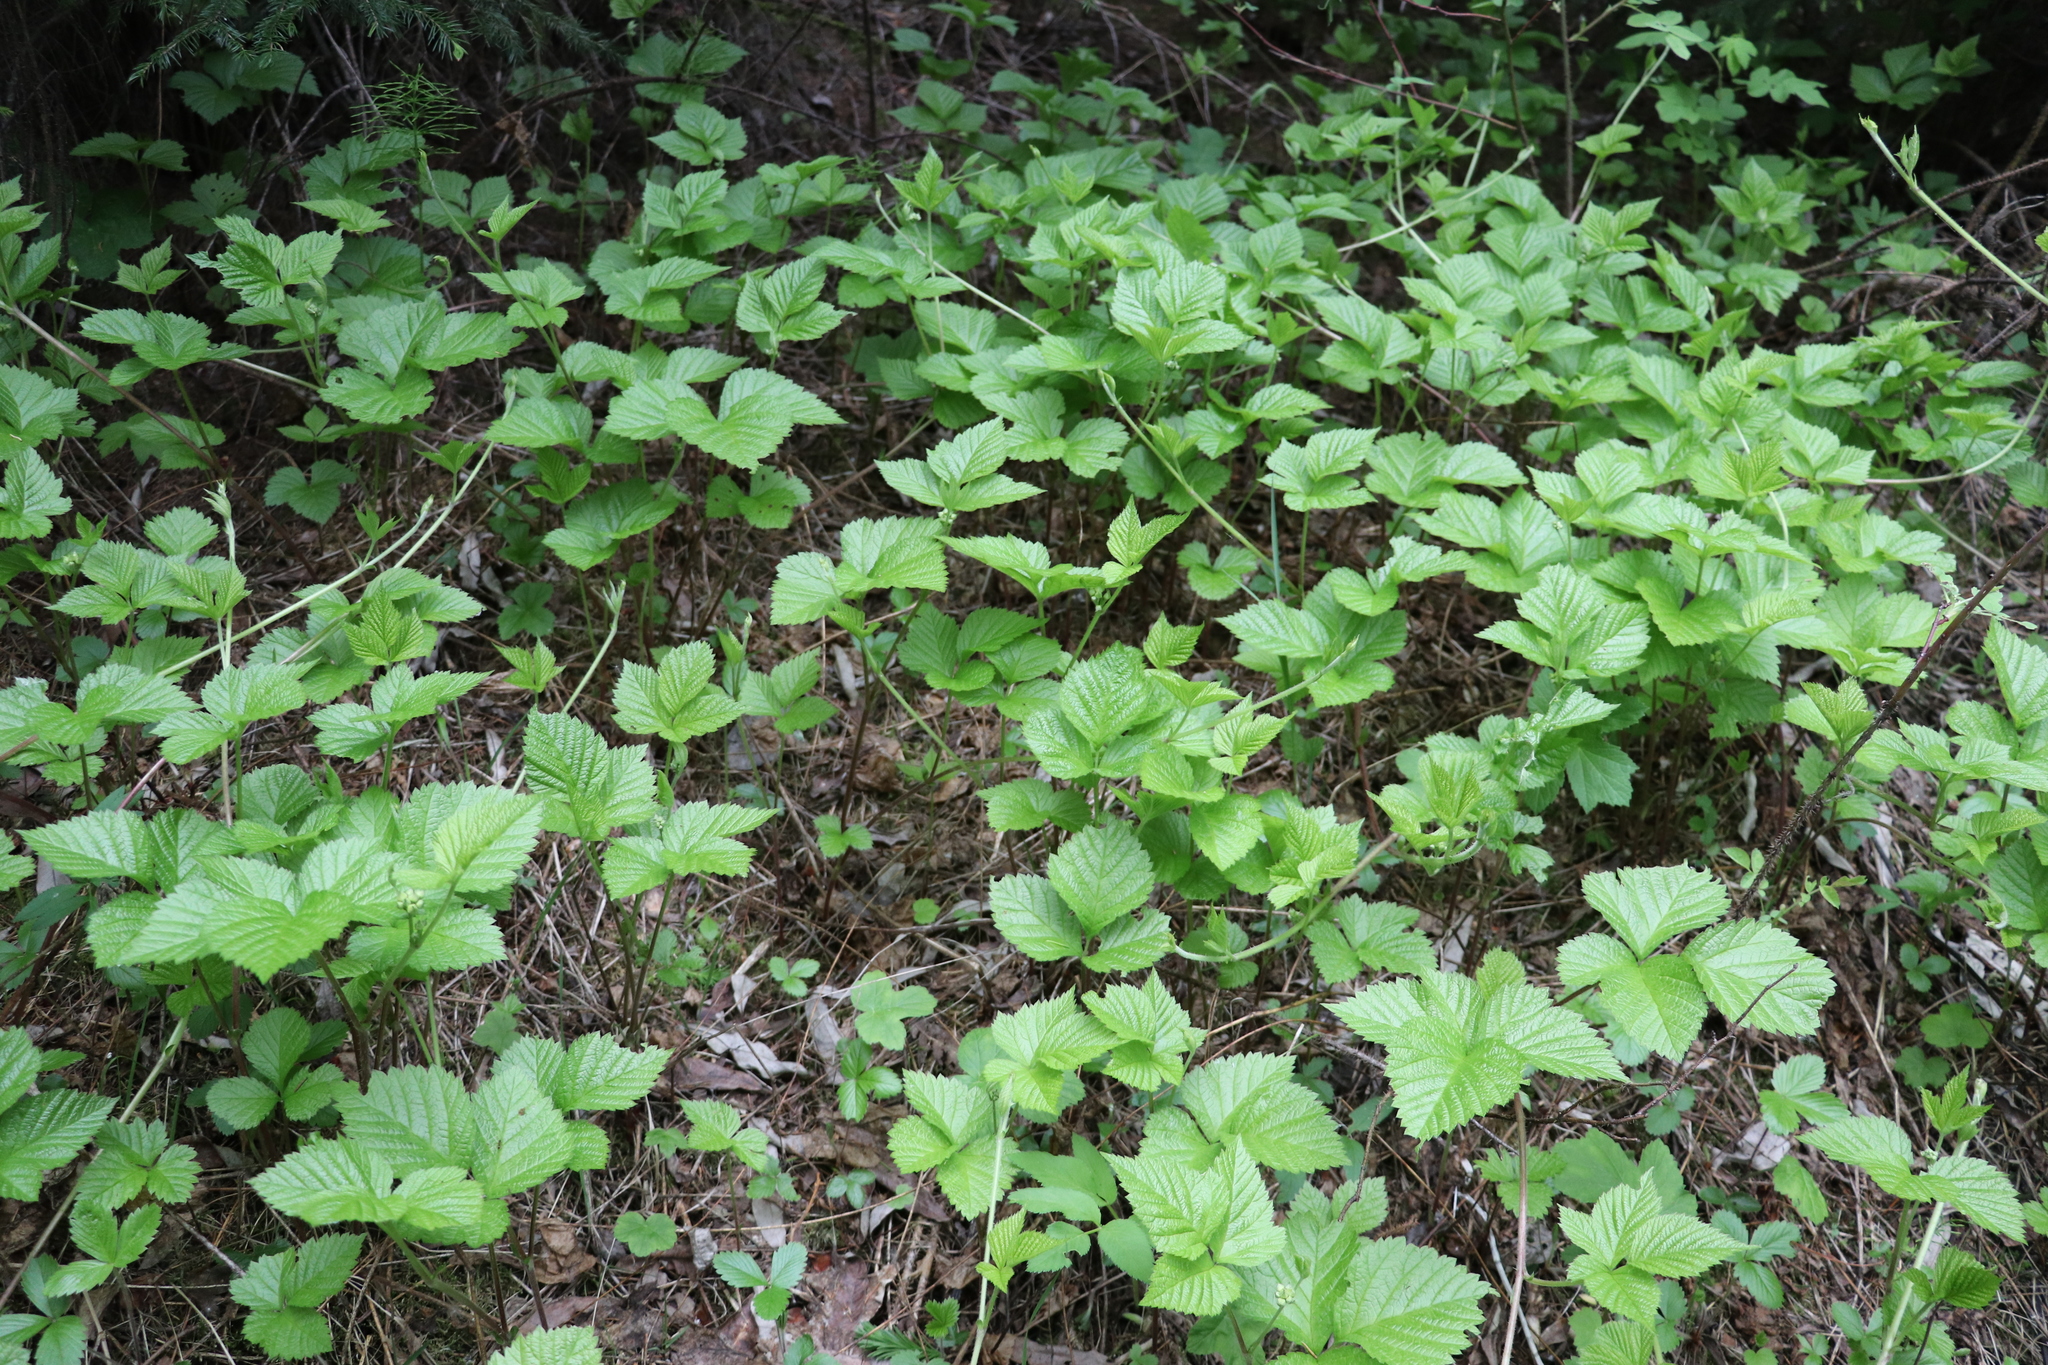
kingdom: Plantae
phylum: Tracheophyta
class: Magnoliopsida
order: Rosales
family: Rosaceae
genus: Rubus
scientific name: Rubus saxatilis
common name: Stone bramble
